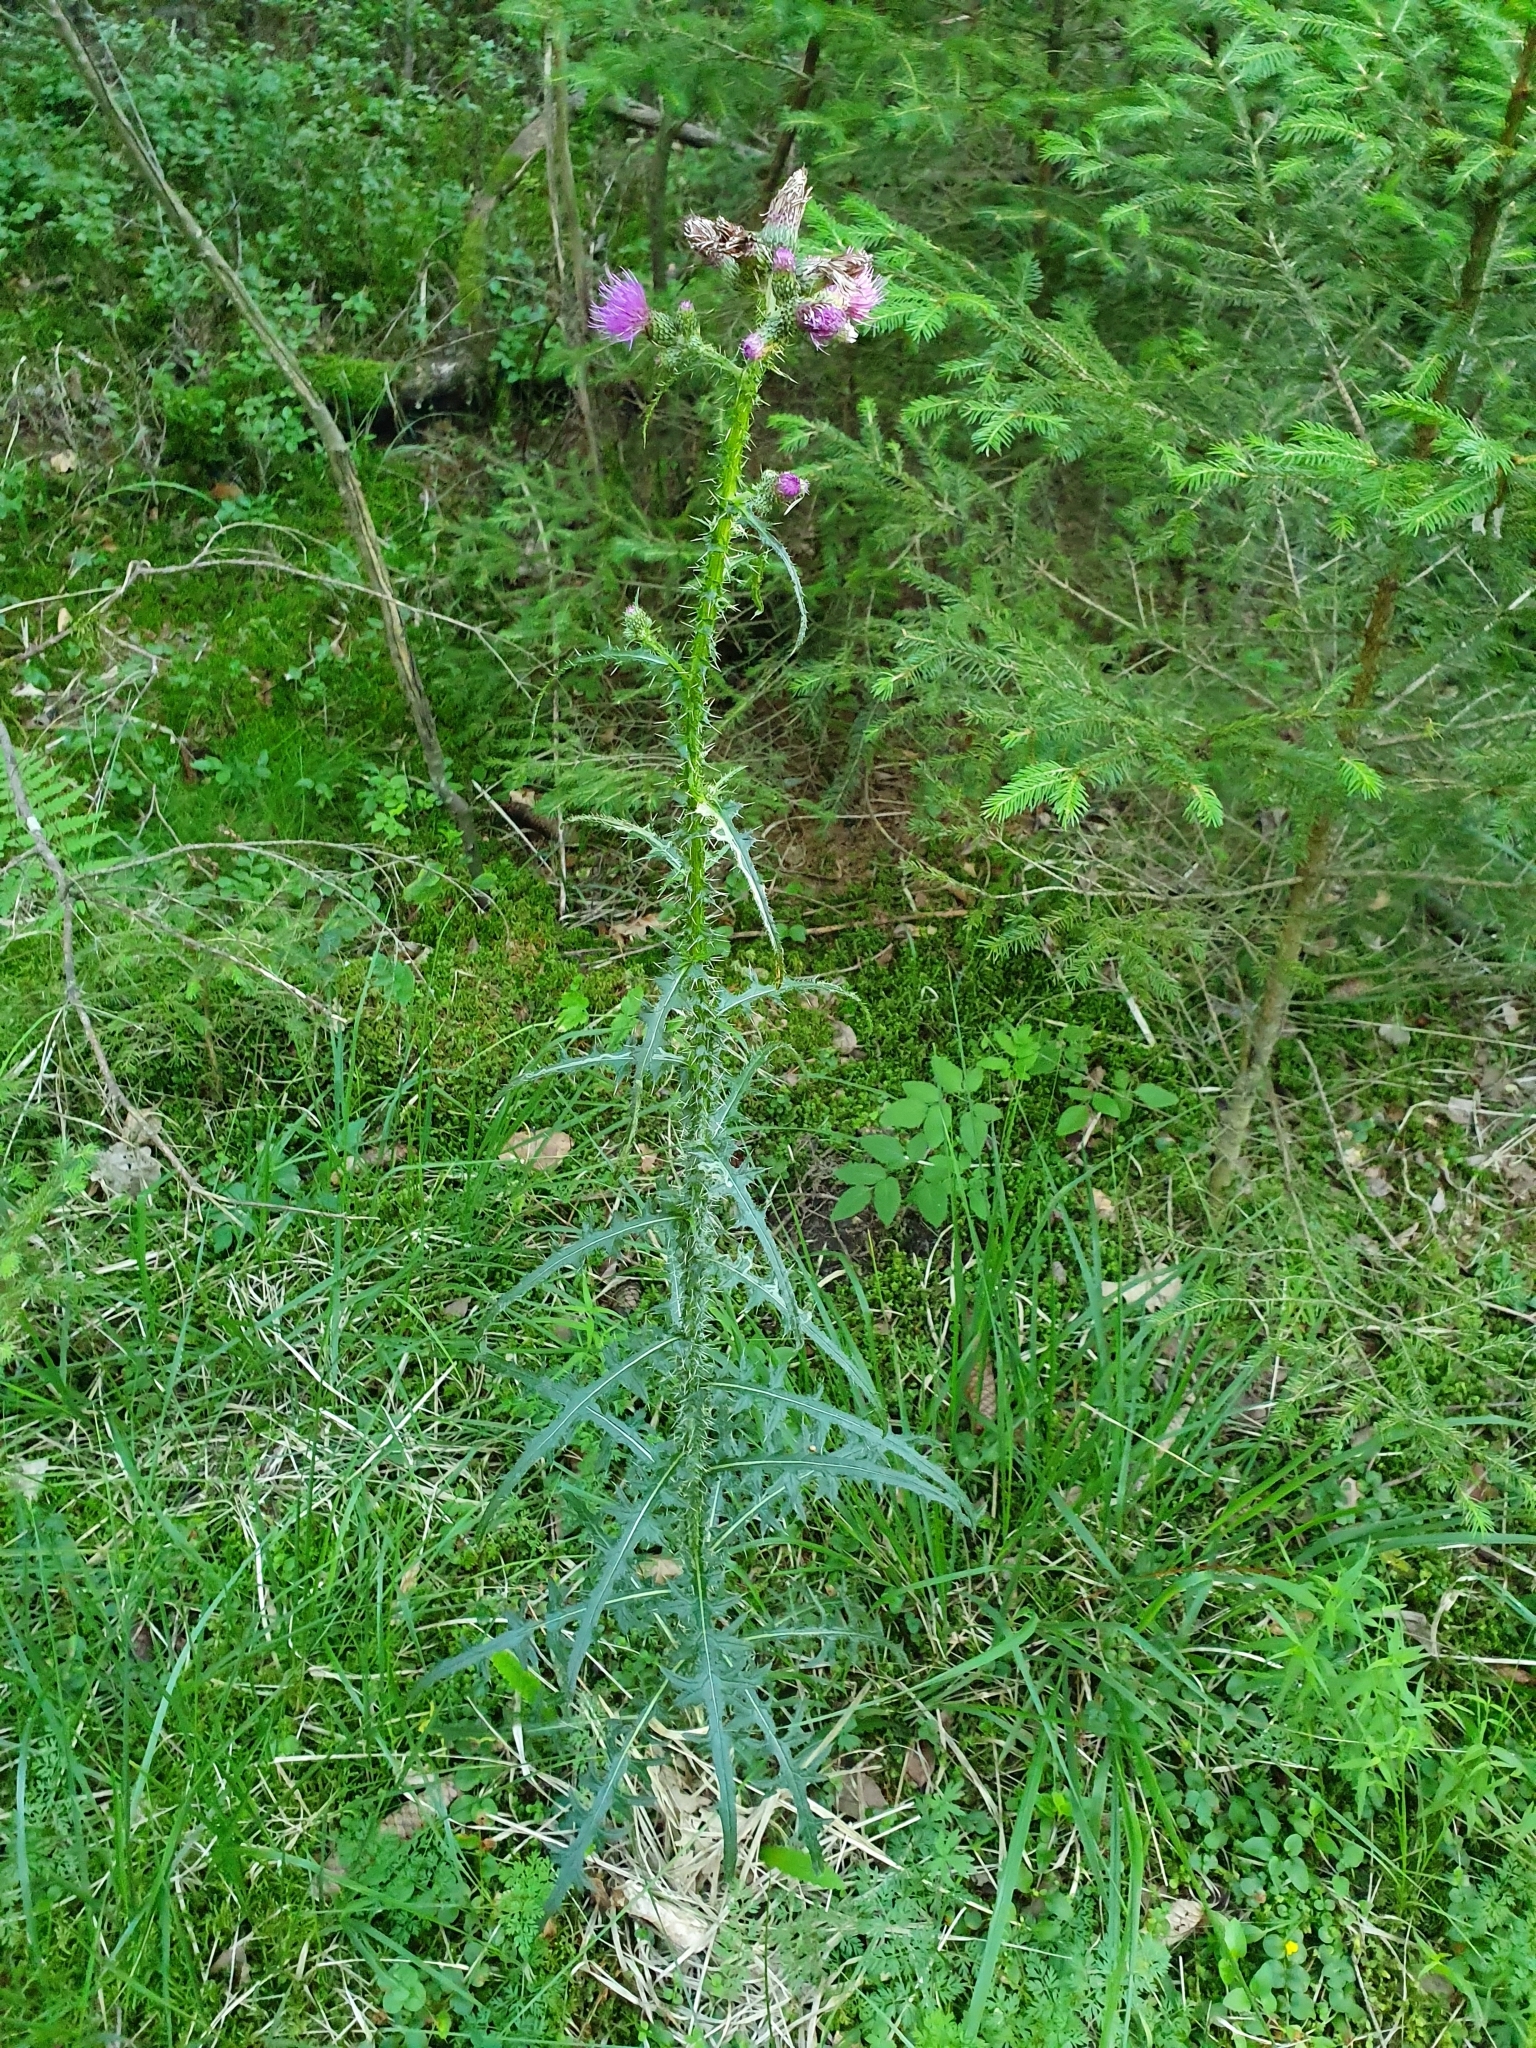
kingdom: Plantae
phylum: Tracheophyta
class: Magnoliopsida
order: Asterales
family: Asteraceae
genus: Cirsium
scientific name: Cirsium palustre
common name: Marsh thistle
